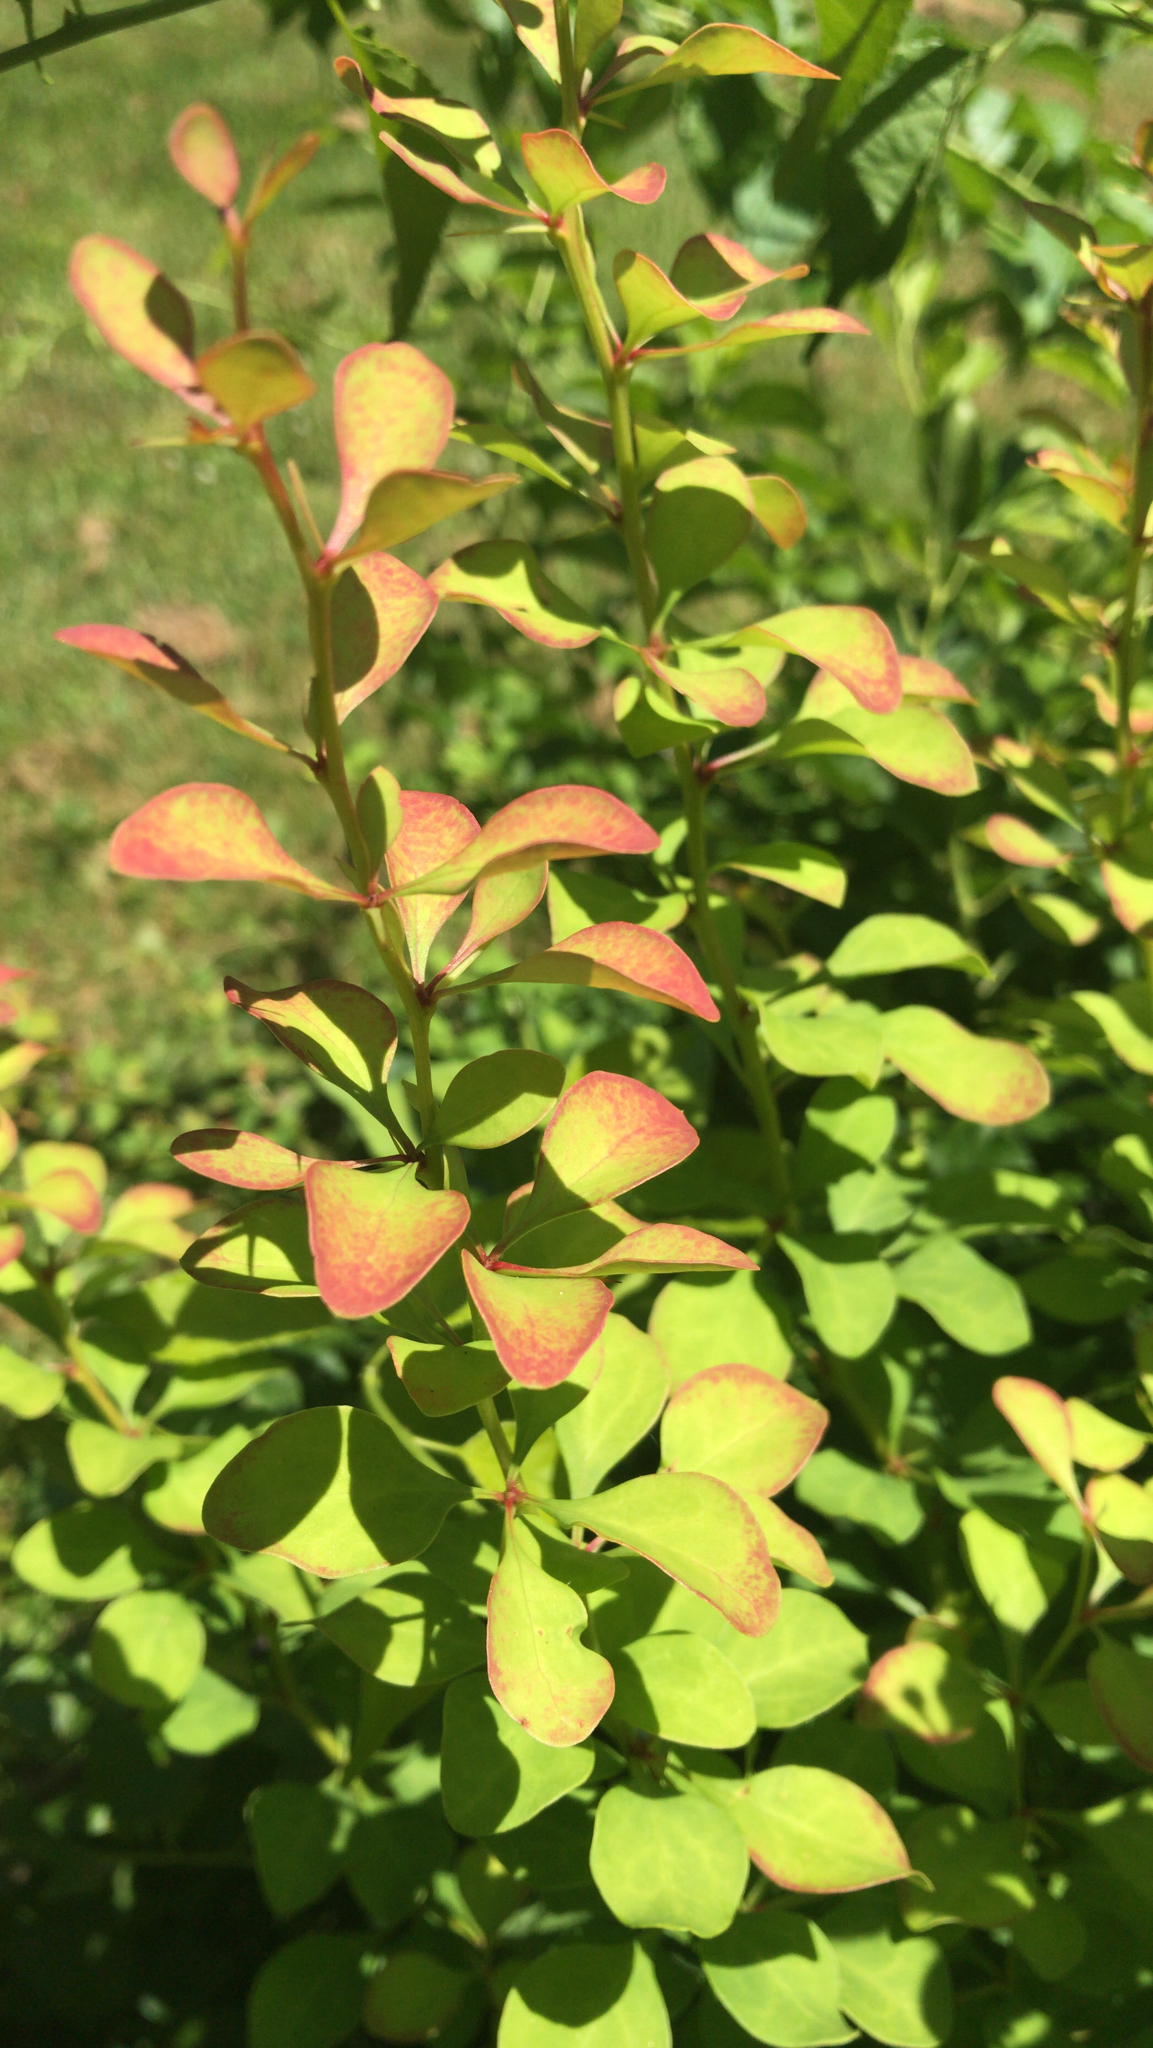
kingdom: Plantae
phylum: Tracheophyta
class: Magnoliopsida
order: Ranunculales
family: Berberidaceae
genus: Berberis
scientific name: Berberis thunbergii
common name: Japanese barberry
